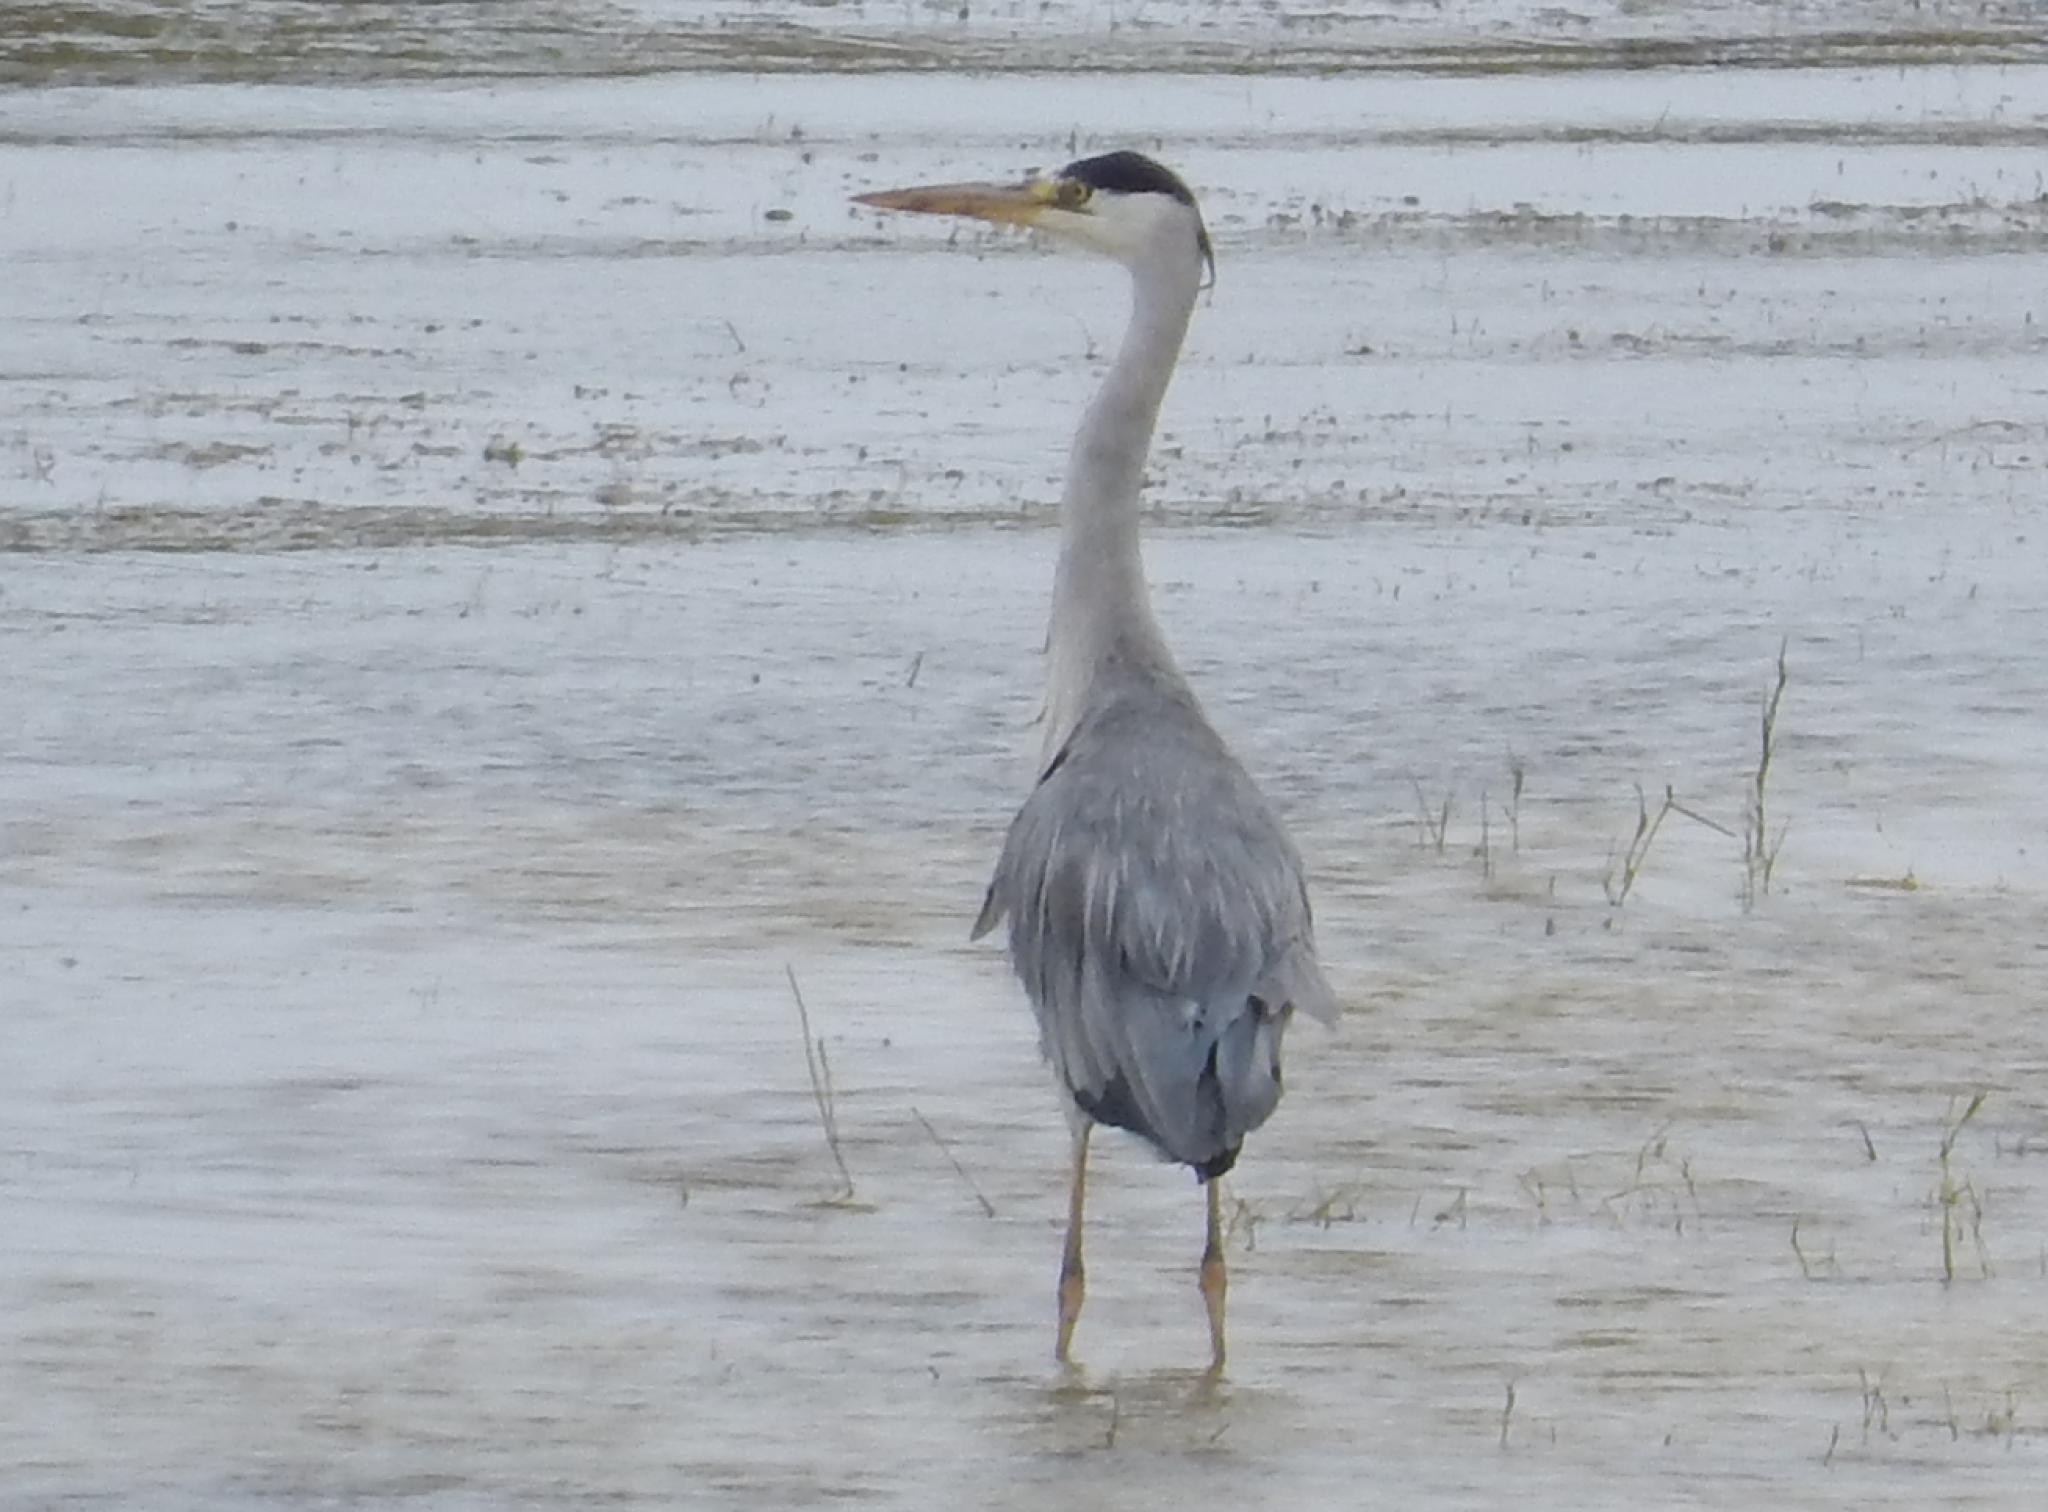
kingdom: Animalia
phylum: Chordata
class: Aves
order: Pelecaniformes
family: Ardeidae
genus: Ardea
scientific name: Ardea cinerea
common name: Grey heron
